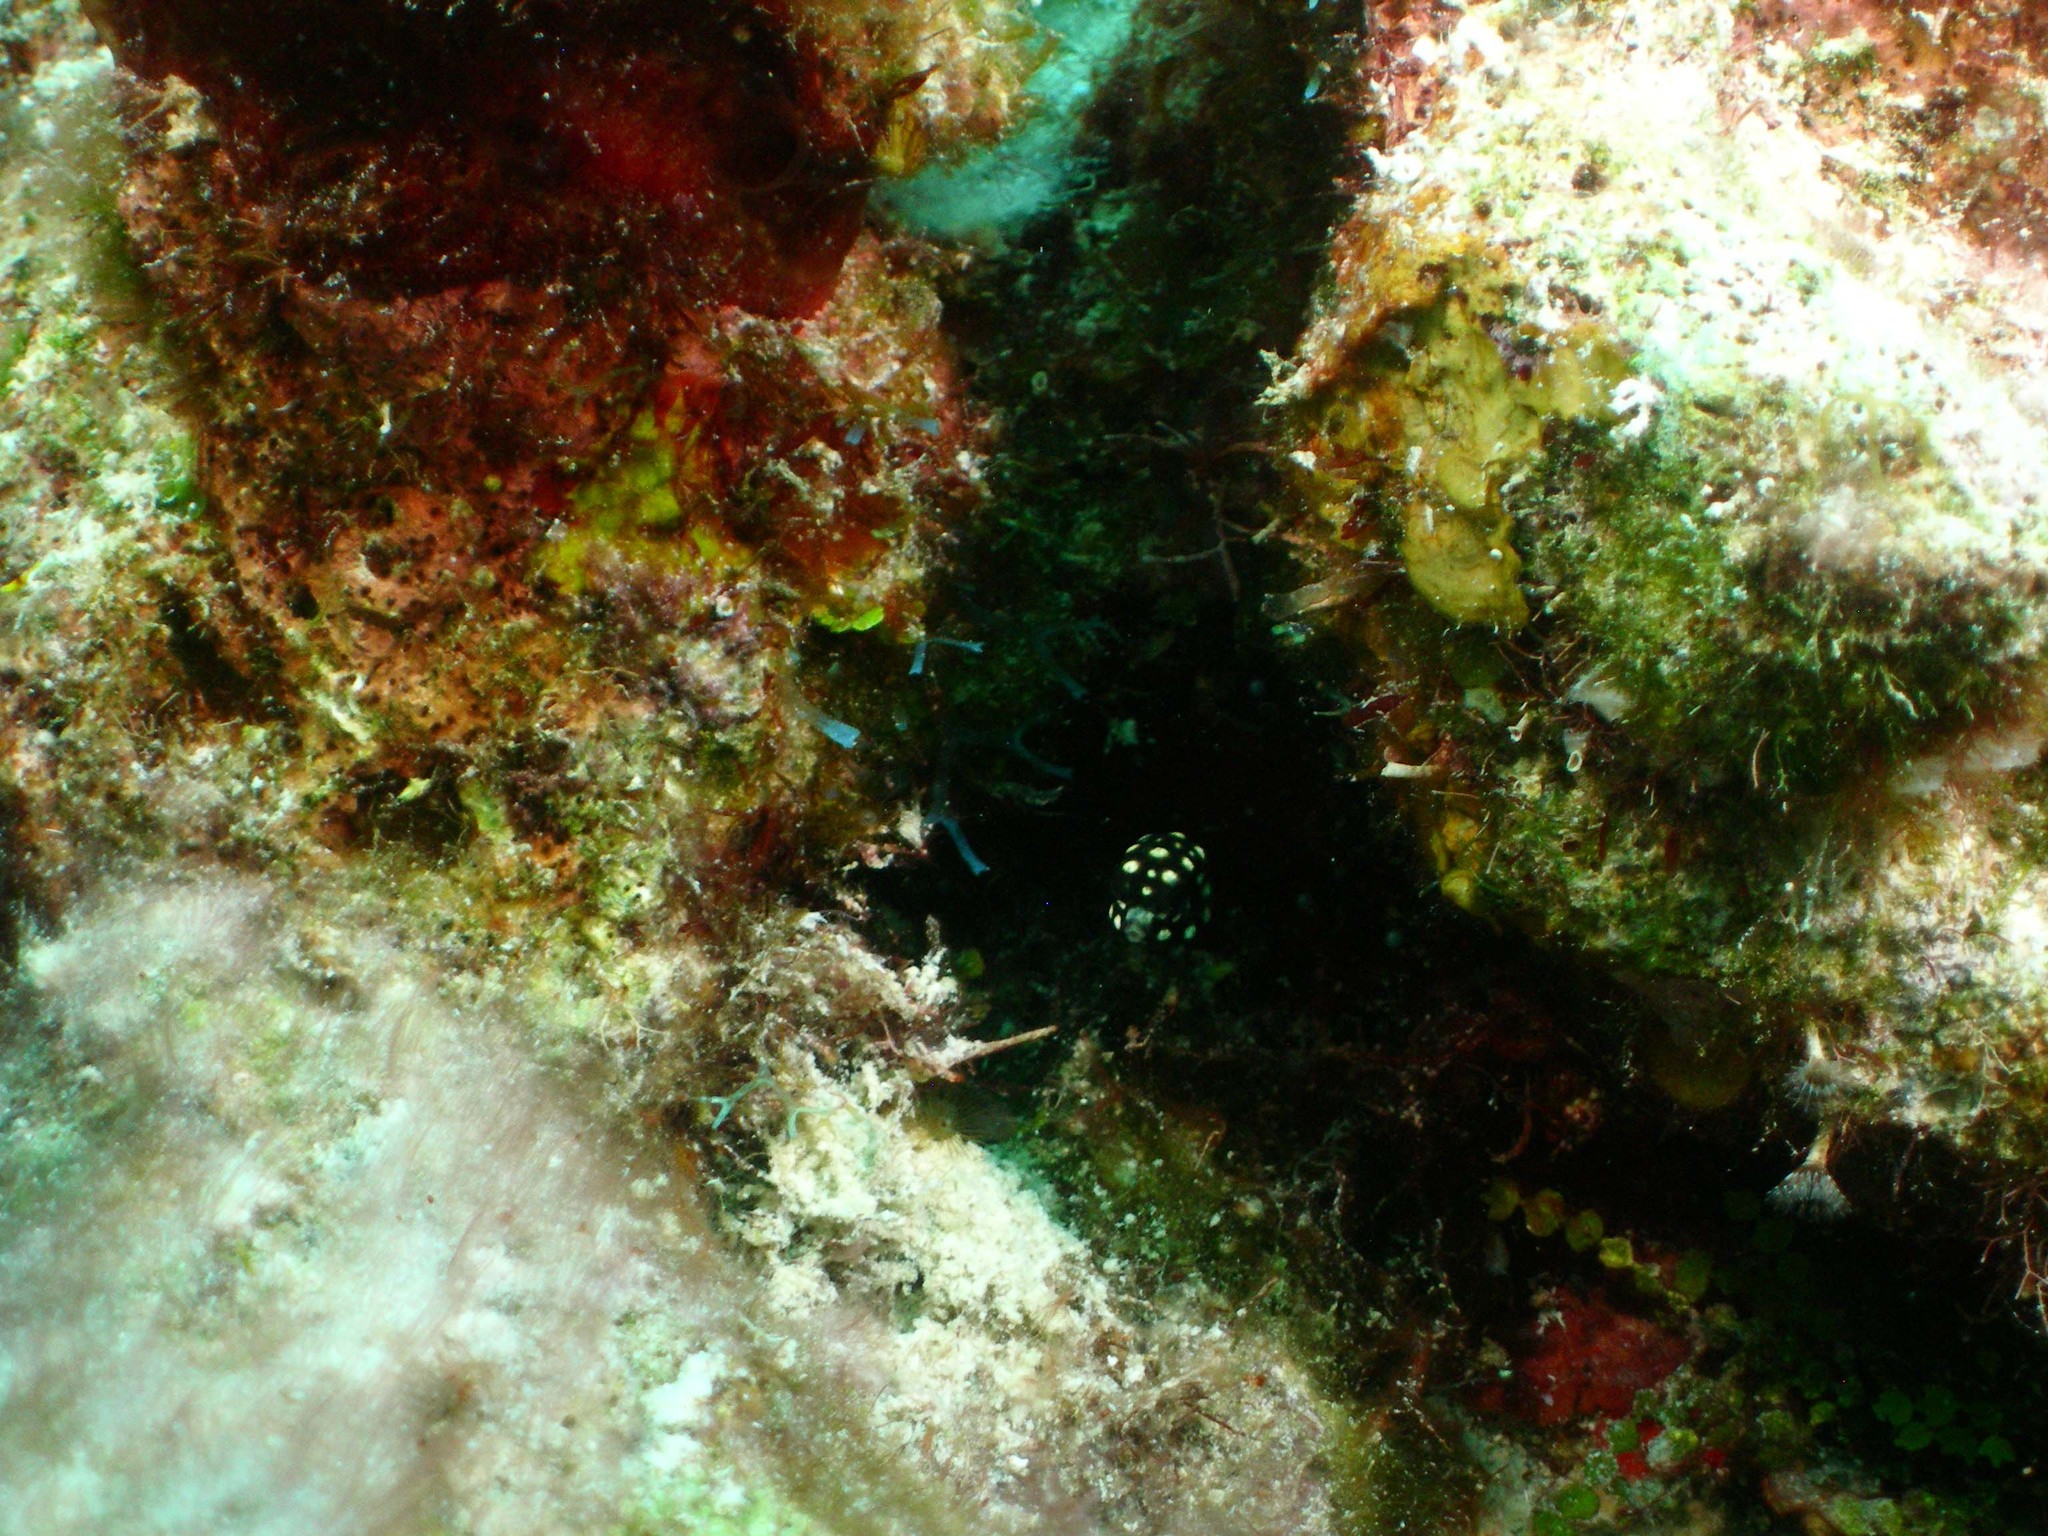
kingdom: Animalia
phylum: Chordata
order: Tetraodontiformes
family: Ostraciidae
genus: Lactophrys
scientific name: Lactophrys triqueter
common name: Smooth trunkfish
